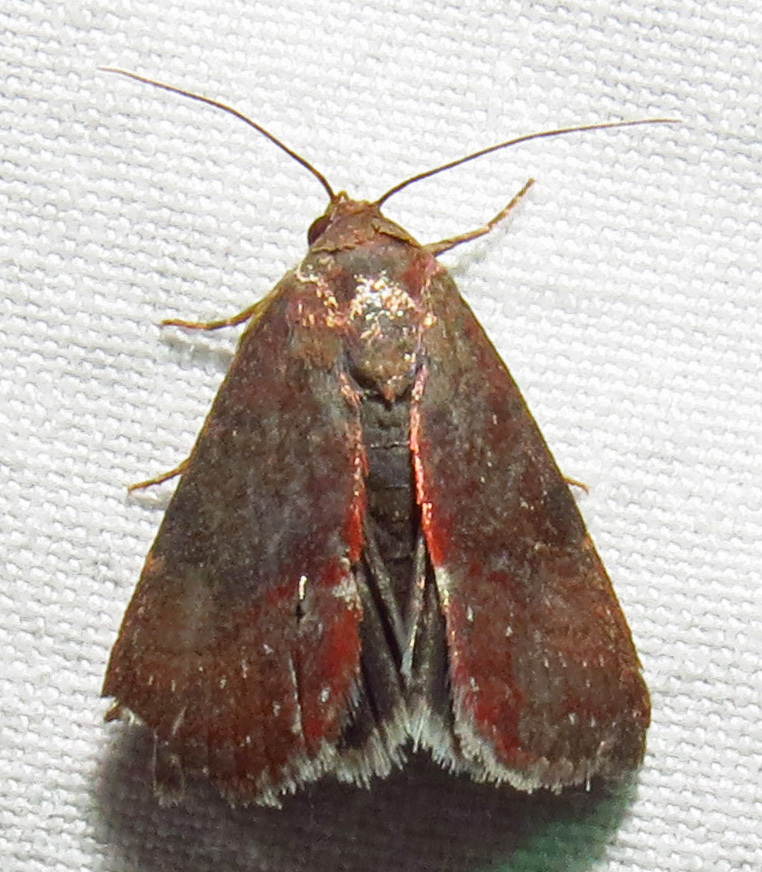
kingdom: Animalia
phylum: Arthropoda
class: Insecta
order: Lepidoptera
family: Noctuidae
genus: Galgula
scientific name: Galgula partita
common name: Wedgeling
